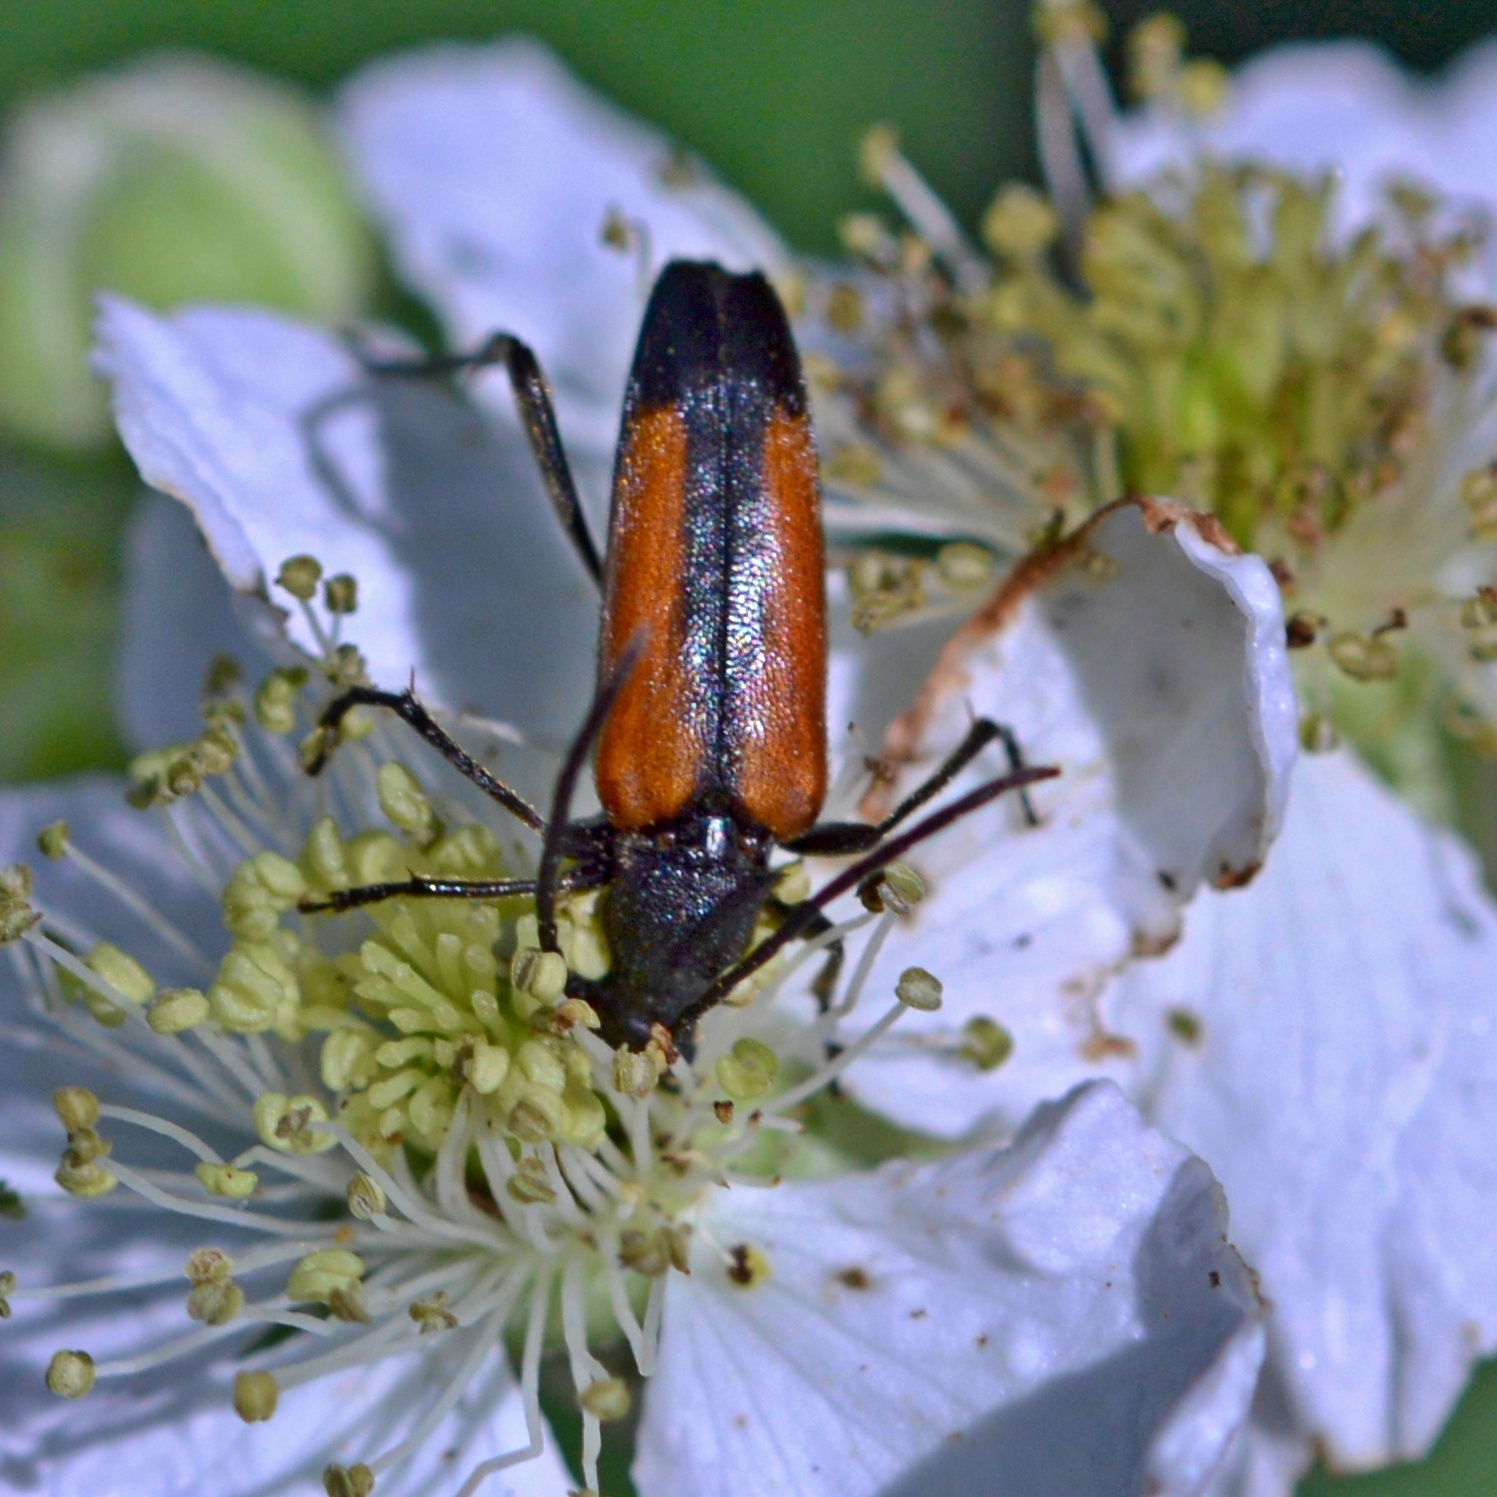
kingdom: Animalia
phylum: Arthropoda
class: Insecta
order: Coleoptera
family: Cerambycidae
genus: Stenurella
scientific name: Stenurella melanura
